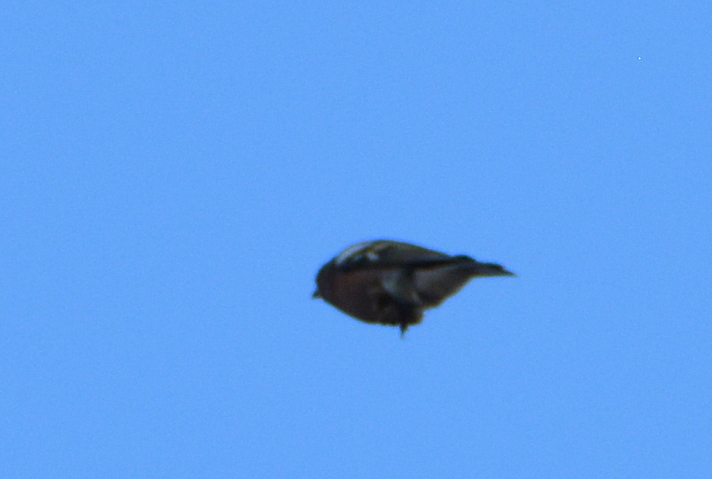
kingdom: Animalia
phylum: Chordata
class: Aves
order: Passeriformes
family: Fringillidae
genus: Fringilla
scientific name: Fringilla coelebs
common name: Common chaffinch
